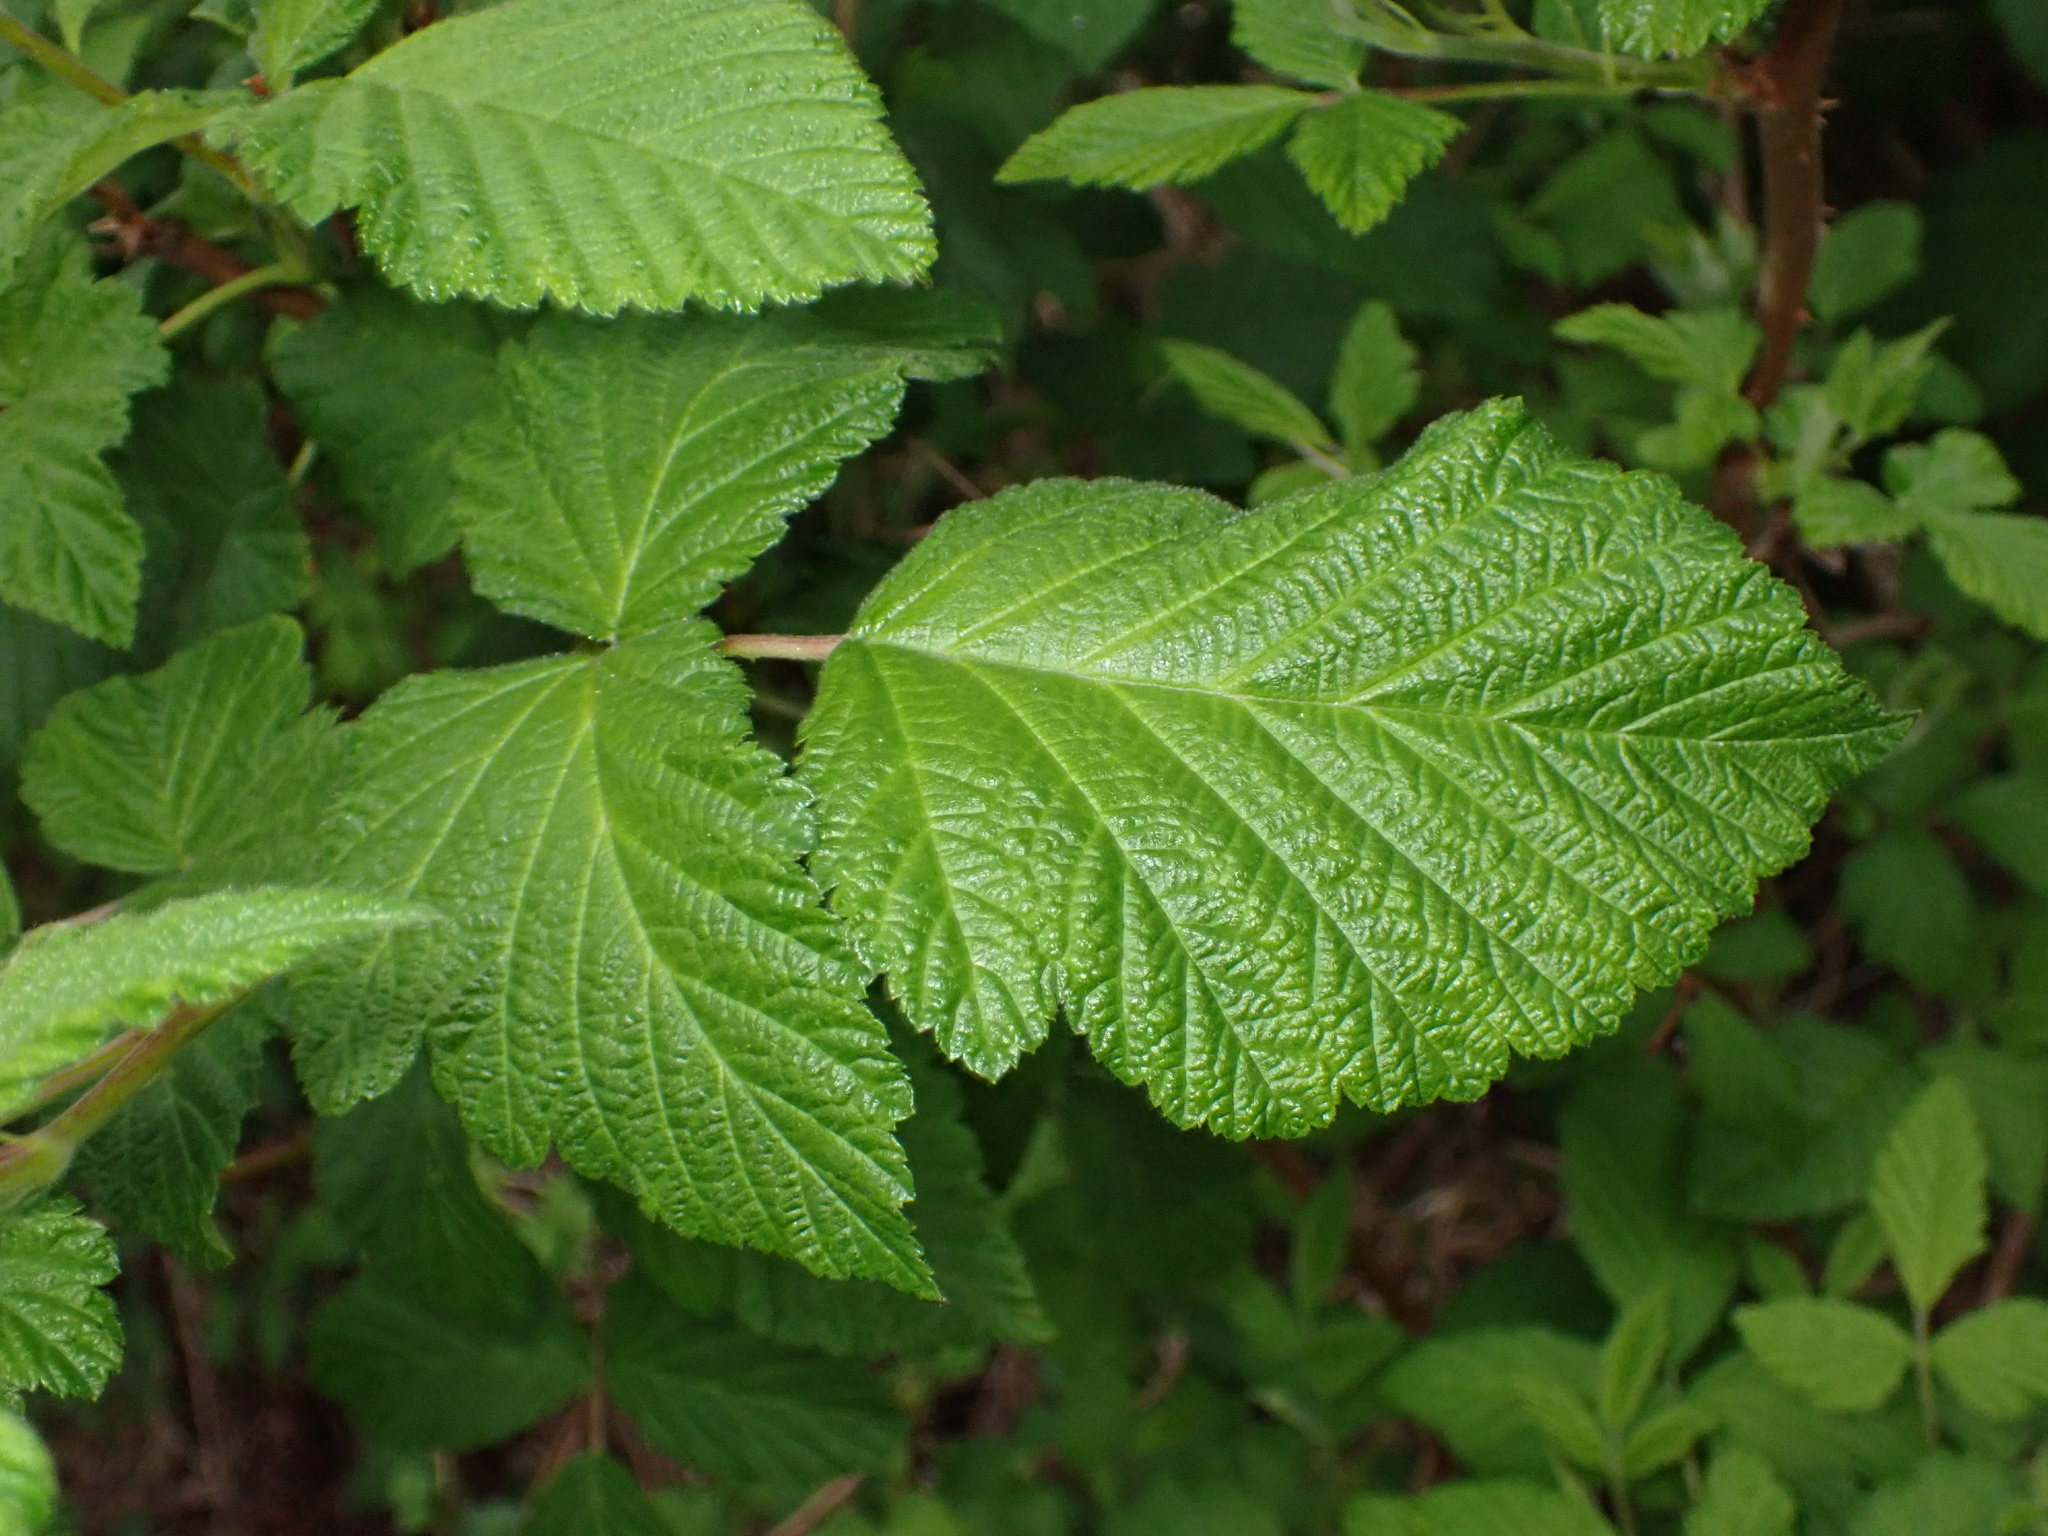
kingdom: Plantae
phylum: Tracheophyta
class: Magnoliopsida
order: Rosales
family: Rosaceae
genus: Rubus
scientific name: Rubus spectabilis
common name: Salmonberry
